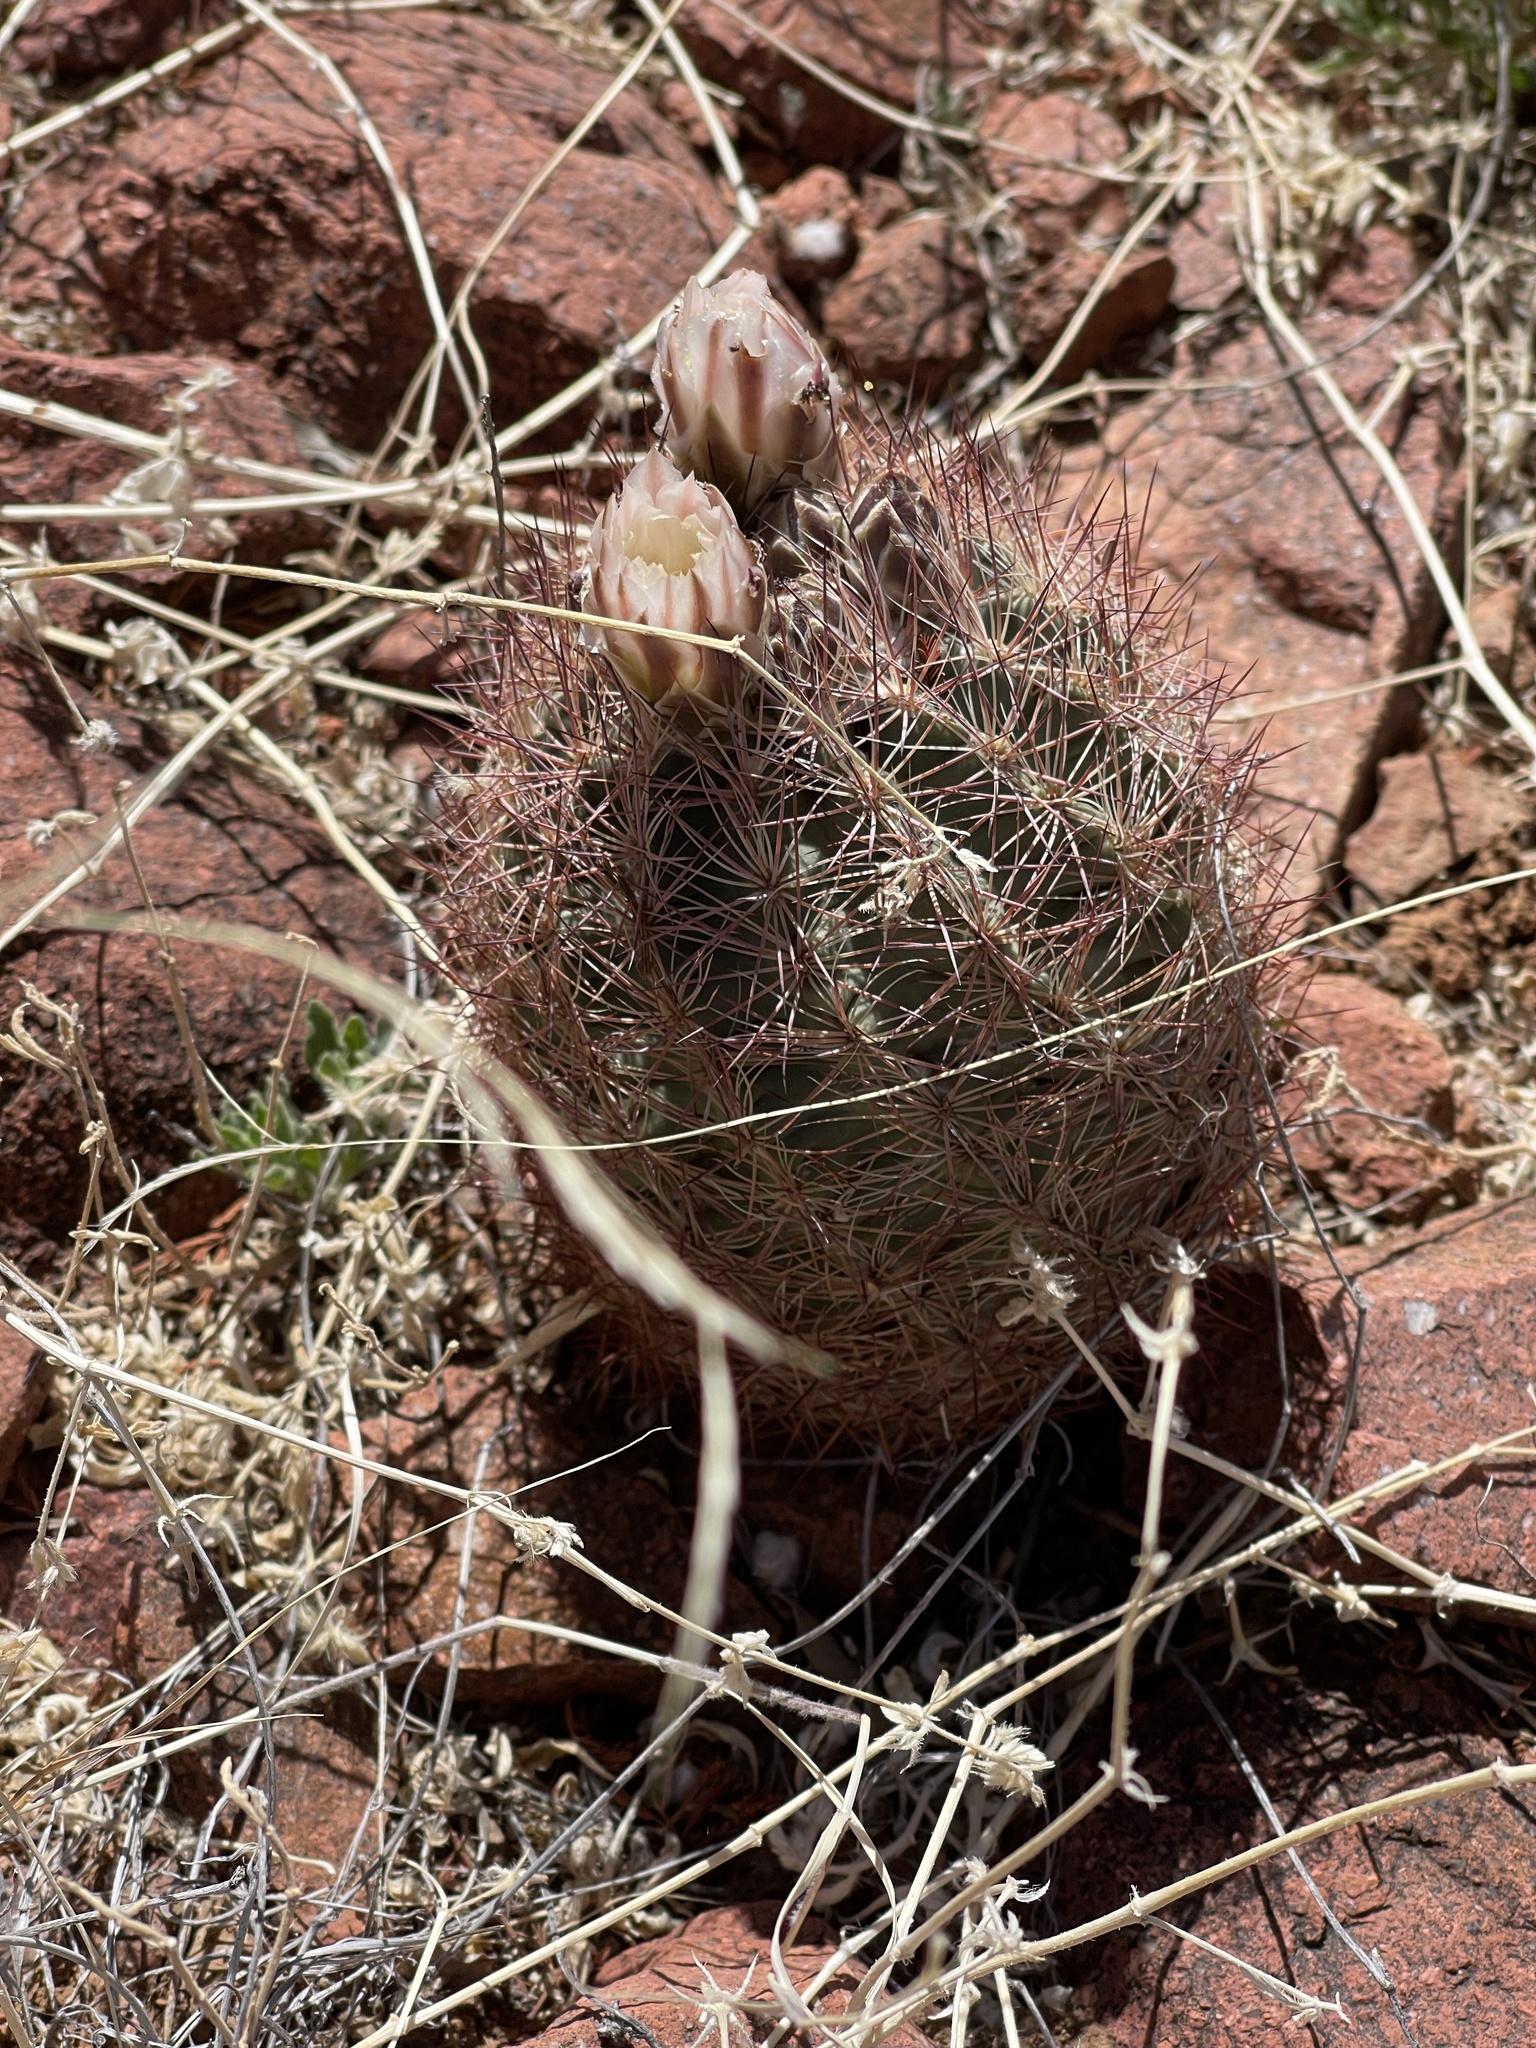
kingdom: Plantae
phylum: Tracheophyta
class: Magnoliopsida
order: Caryophyllales
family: Cactaceae
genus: Sclerocactus
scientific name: Sclerocactus intertextus
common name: White fish-hook cactus
